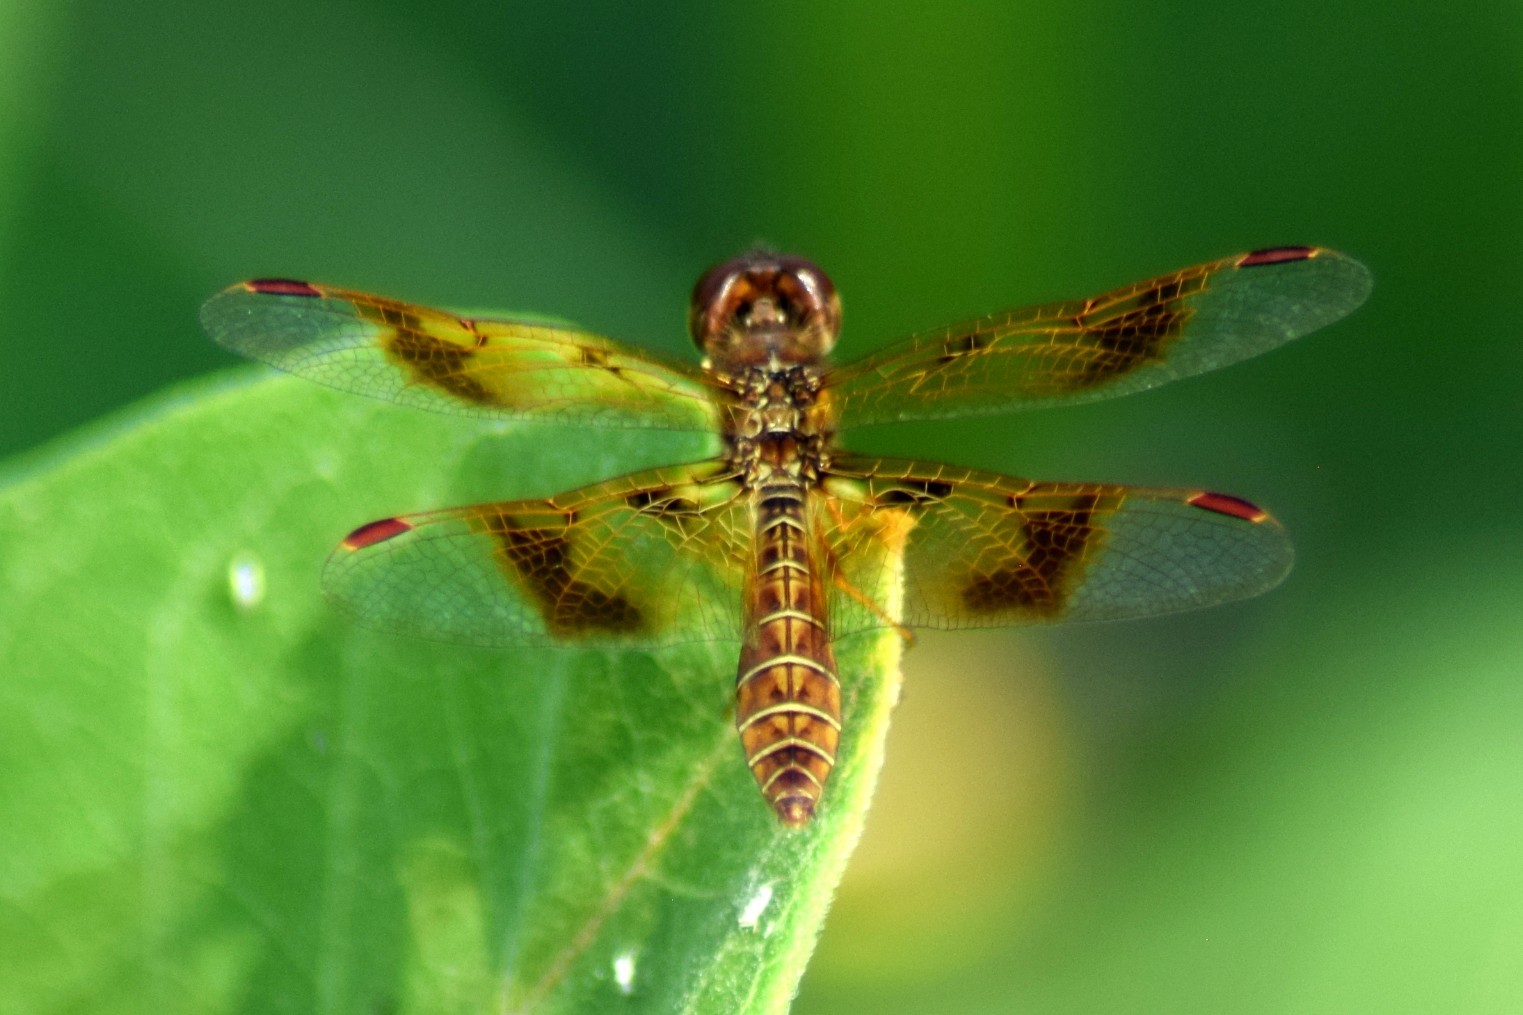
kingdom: Animalia
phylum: Arthropoda
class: Insecta
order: Odonata
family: Libellulidae
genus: Perithemis
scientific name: Perithemis tenera
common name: Eastern amberwing
